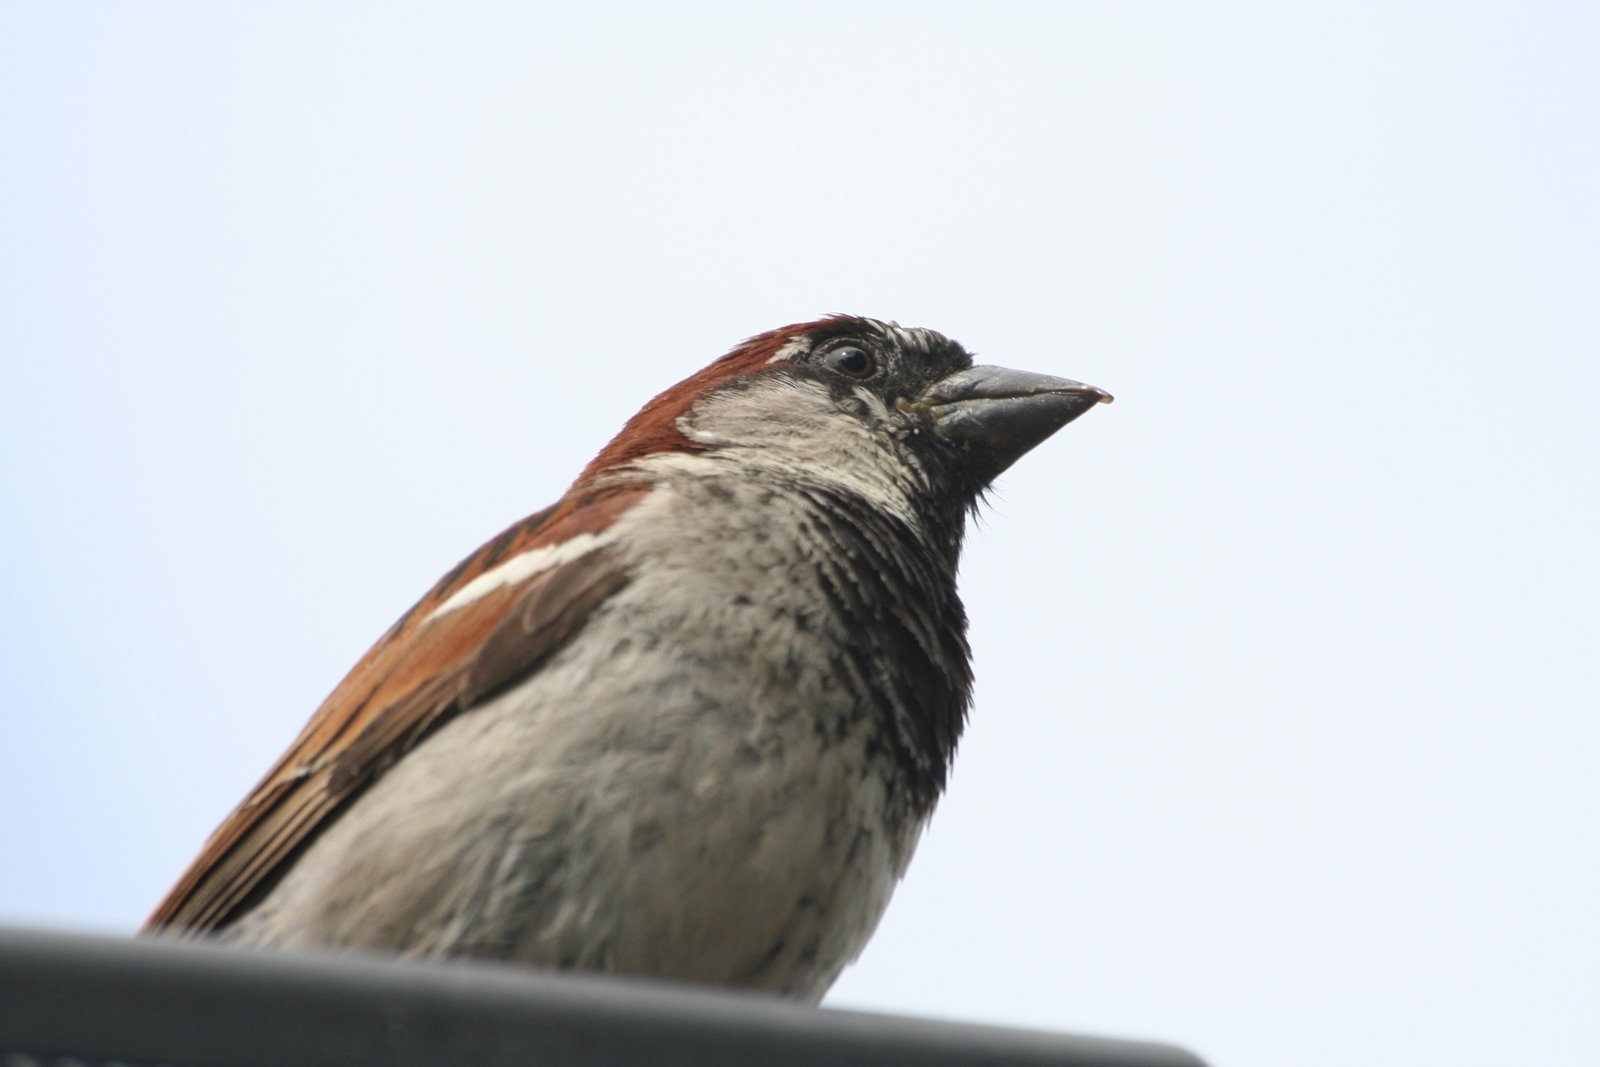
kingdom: Animalia
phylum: Chordata
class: Aves
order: Passeriformes
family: Passeridae
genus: Passer
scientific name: Passer domesticus
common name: House sparrow
